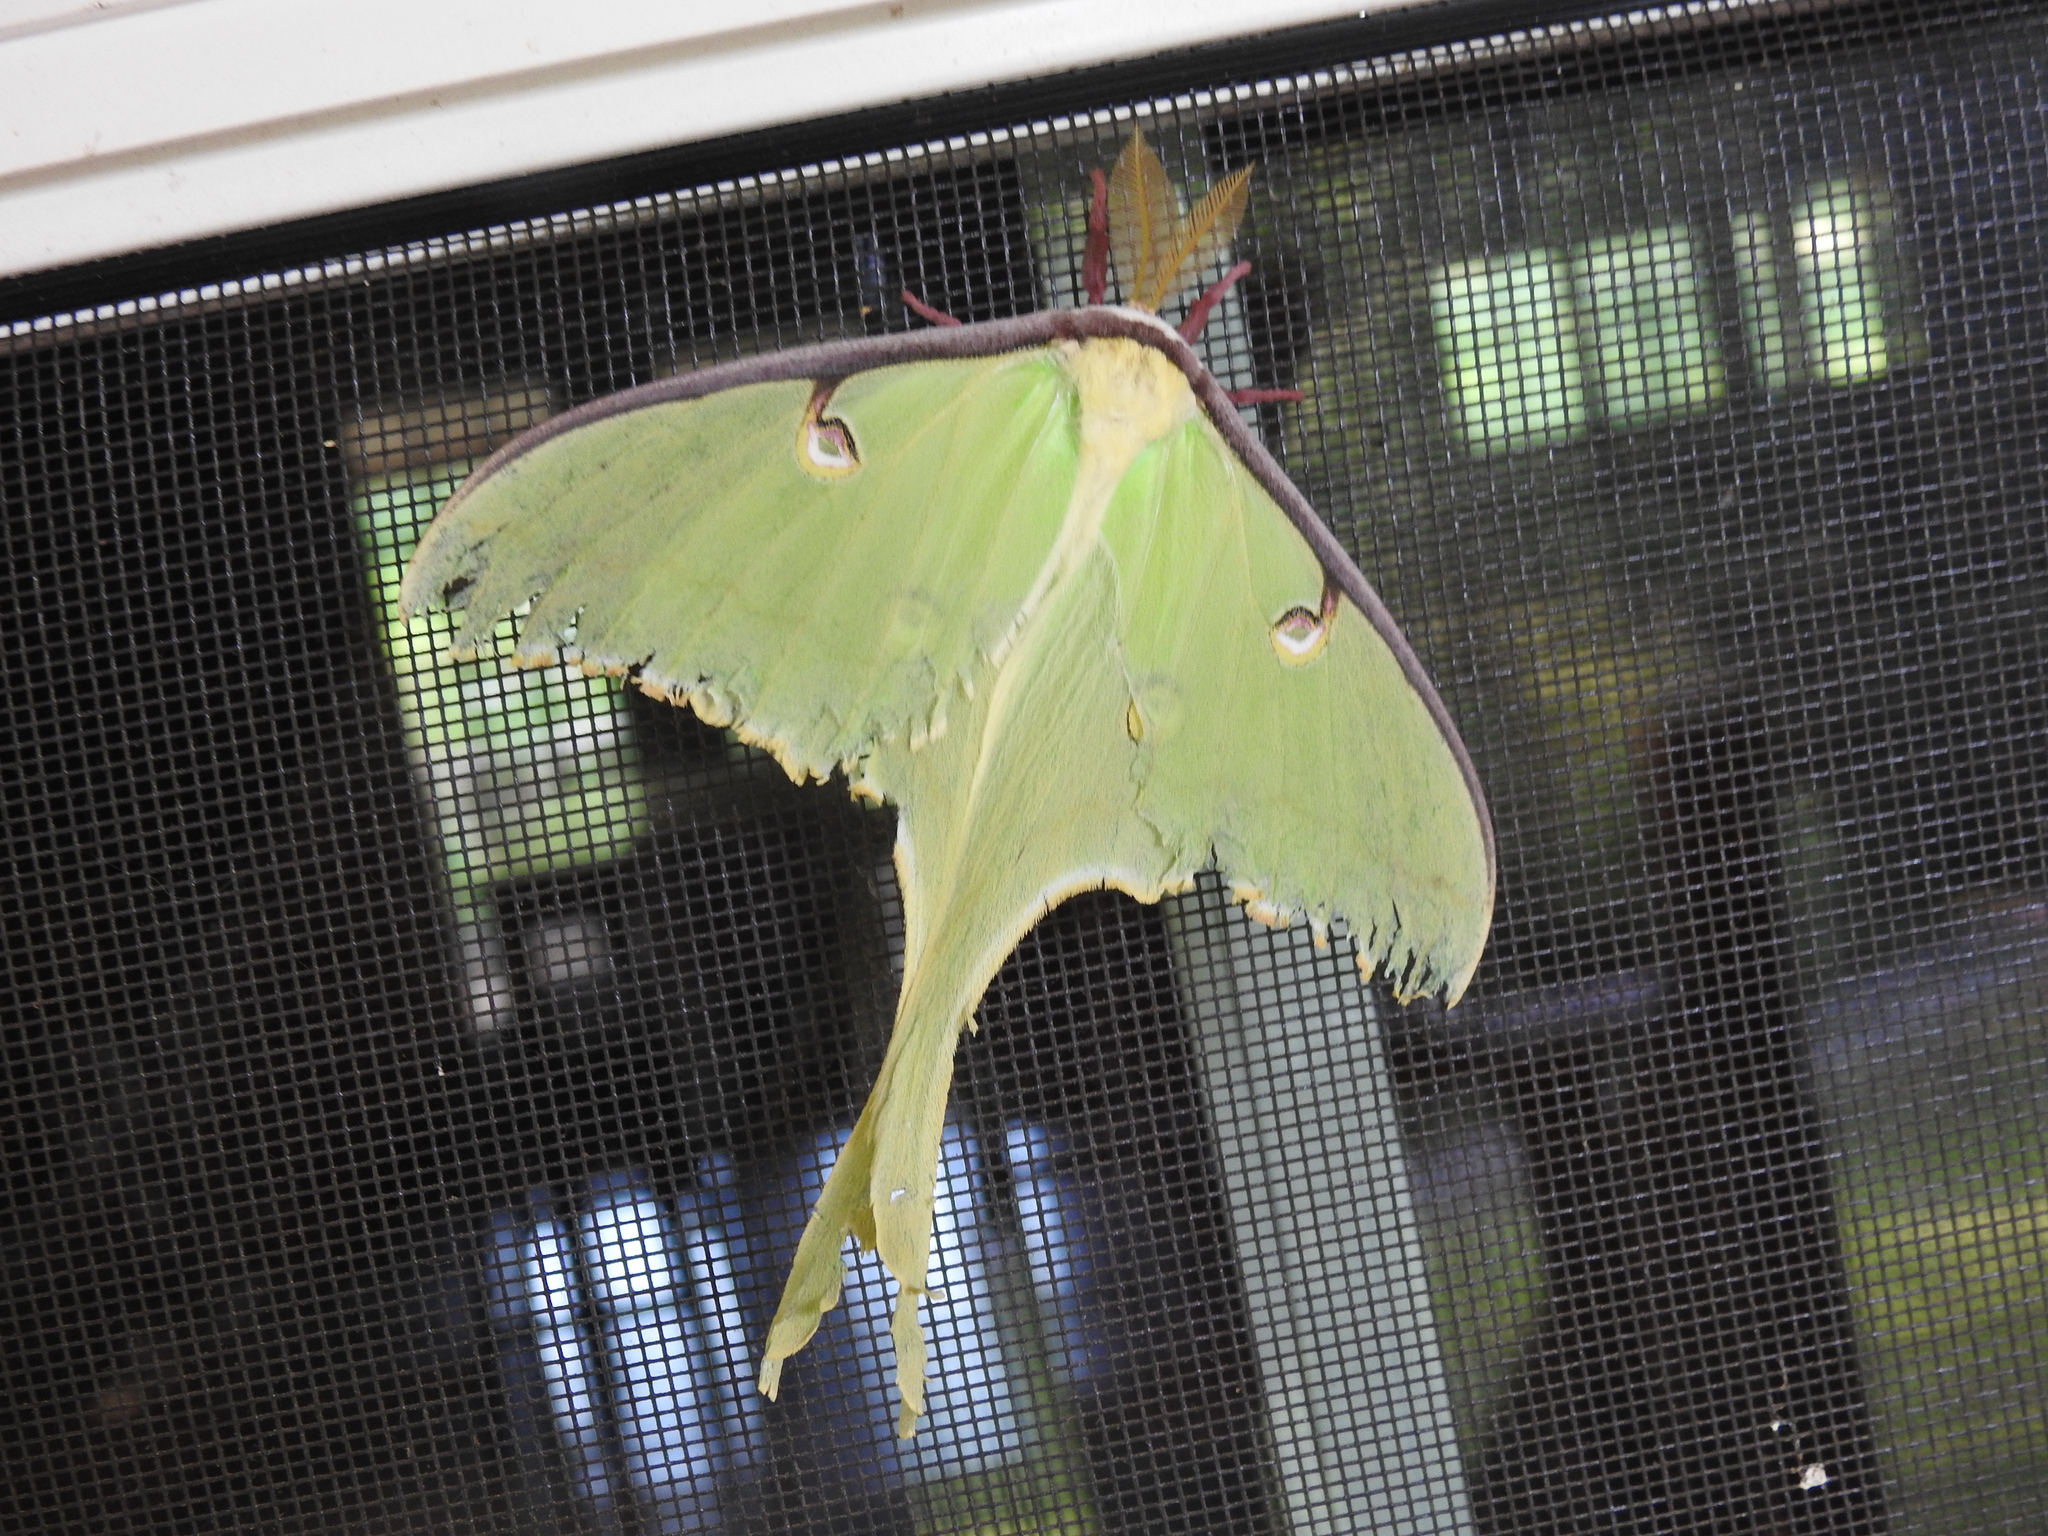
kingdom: Animalia
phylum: Arthropoda
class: Insecta
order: Lepidoptera
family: Saturniidae
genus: Actias
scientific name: Actias luna
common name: Luna moth
